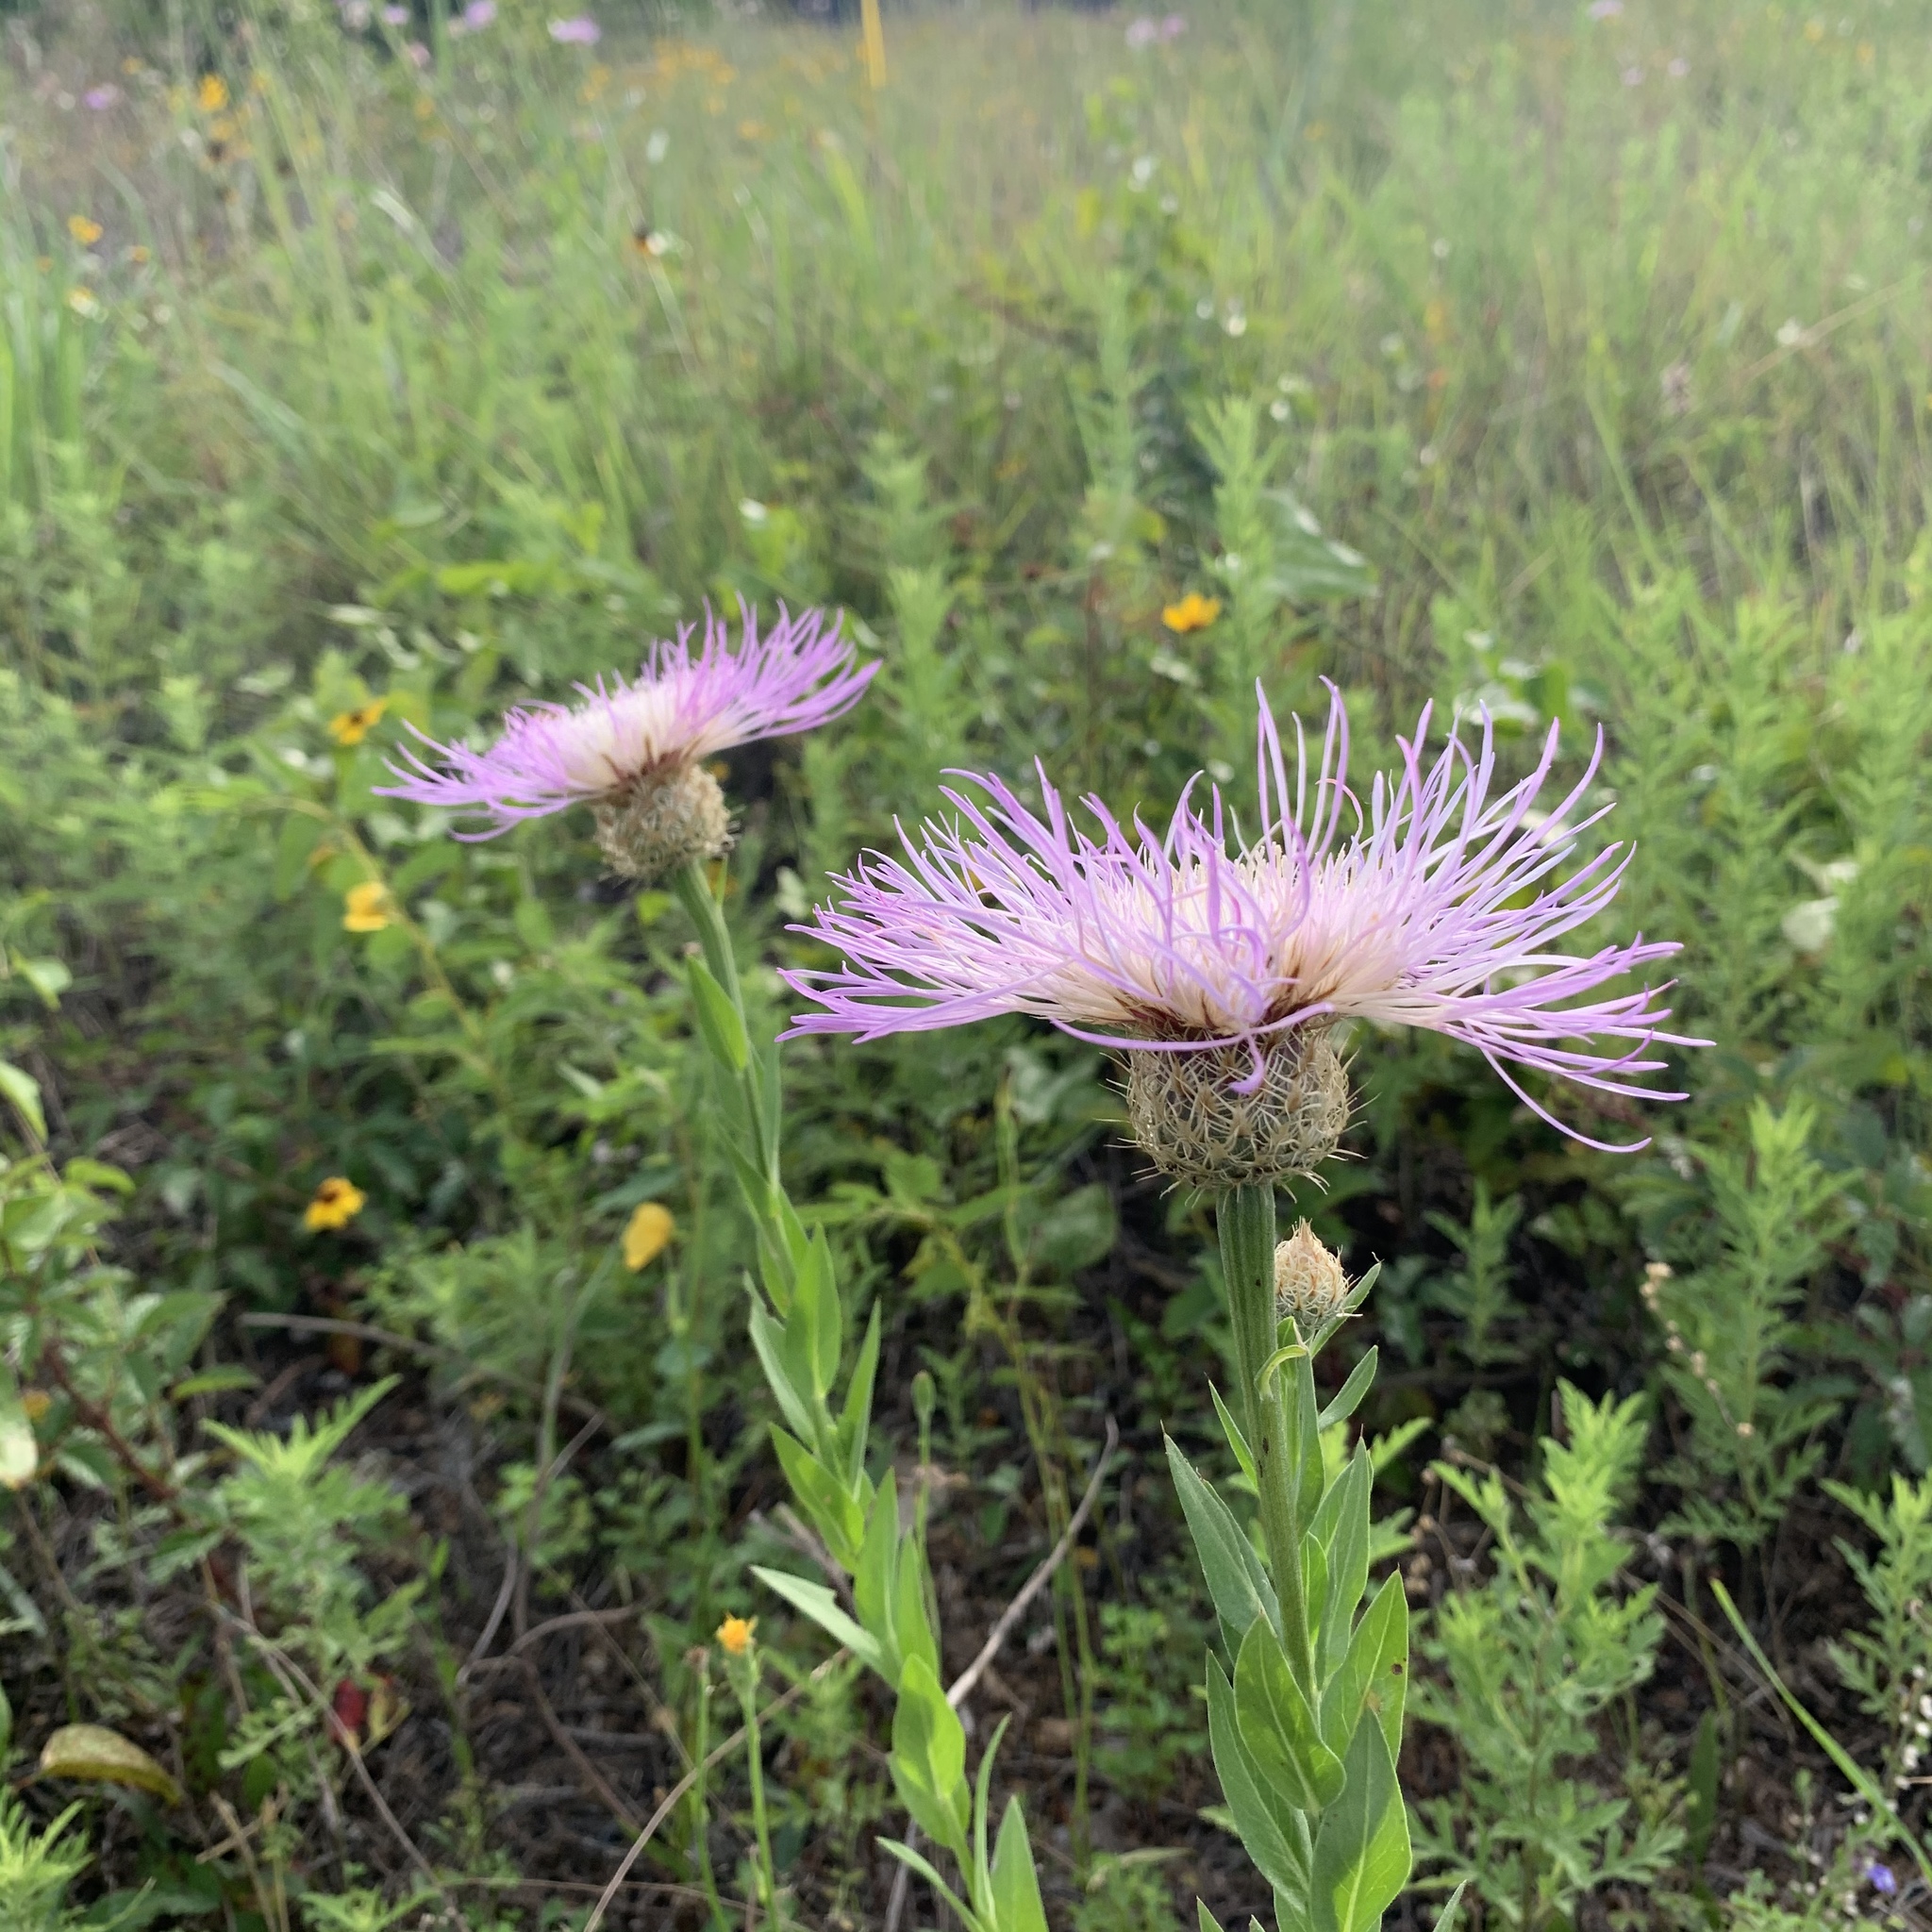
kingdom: Plantae
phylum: Tracheophyta
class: Magnoliopsida
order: Asterales
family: Asteraceae
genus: Plectocephalus
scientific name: Plectocephalus americanus
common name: American basket-flower
